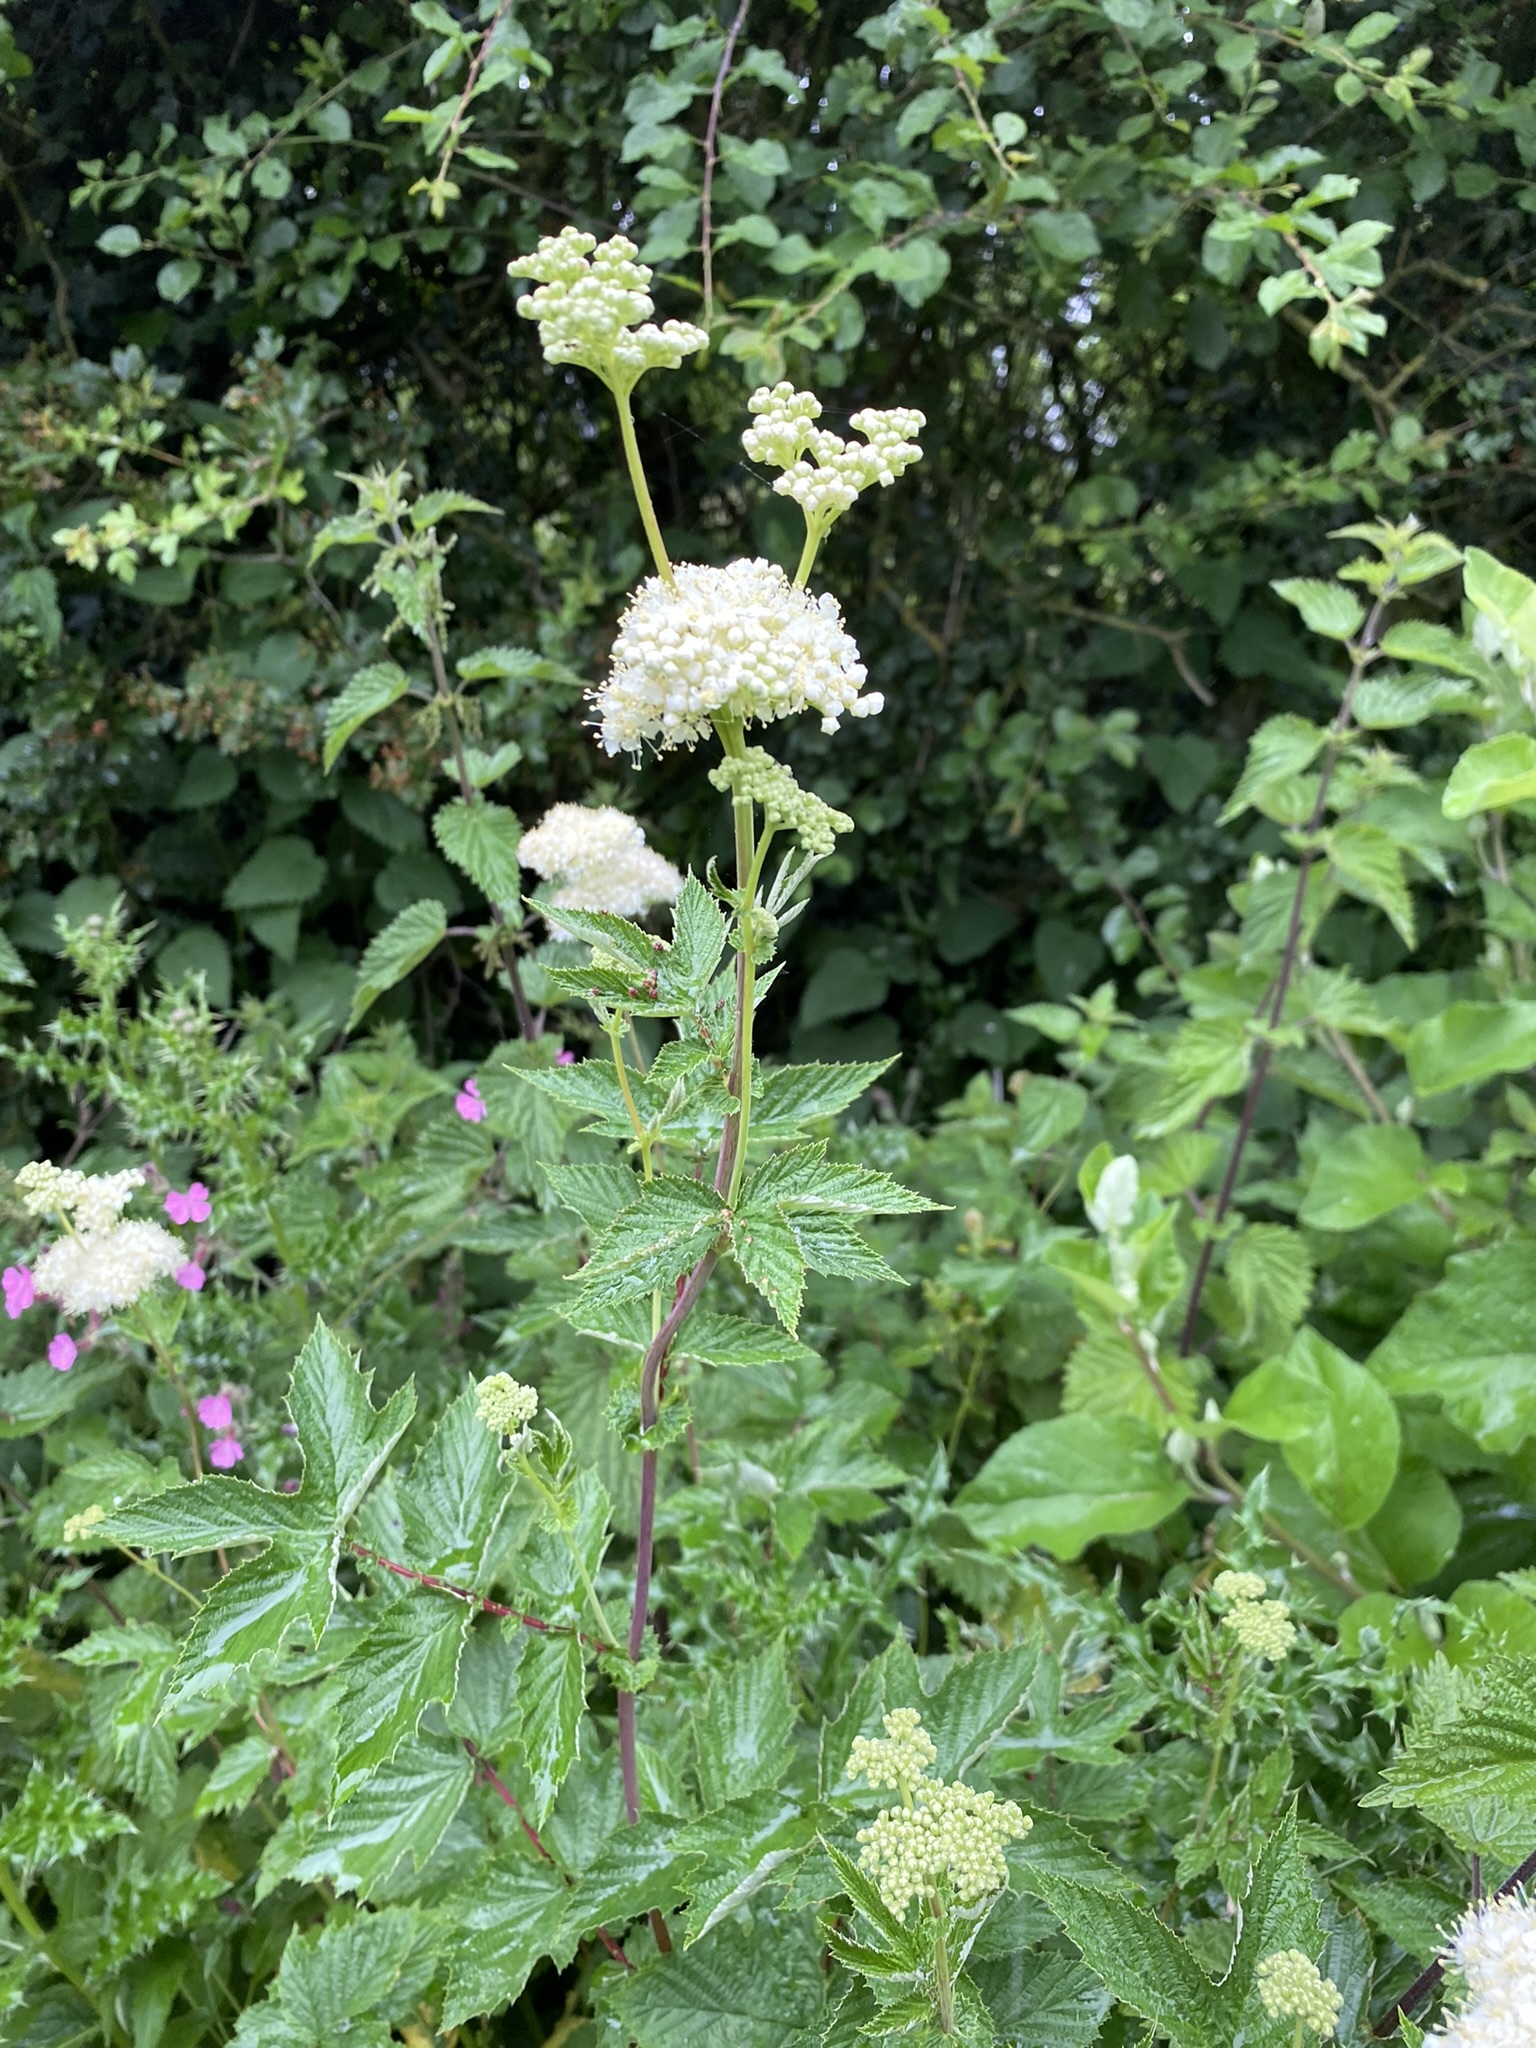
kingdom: Plantae
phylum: Tracheophyta
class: Magnoliopsida
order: Rosales
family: Rosaceae
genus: Filipendula
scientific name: Filipendula ulmaria
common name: Meadowsweet
